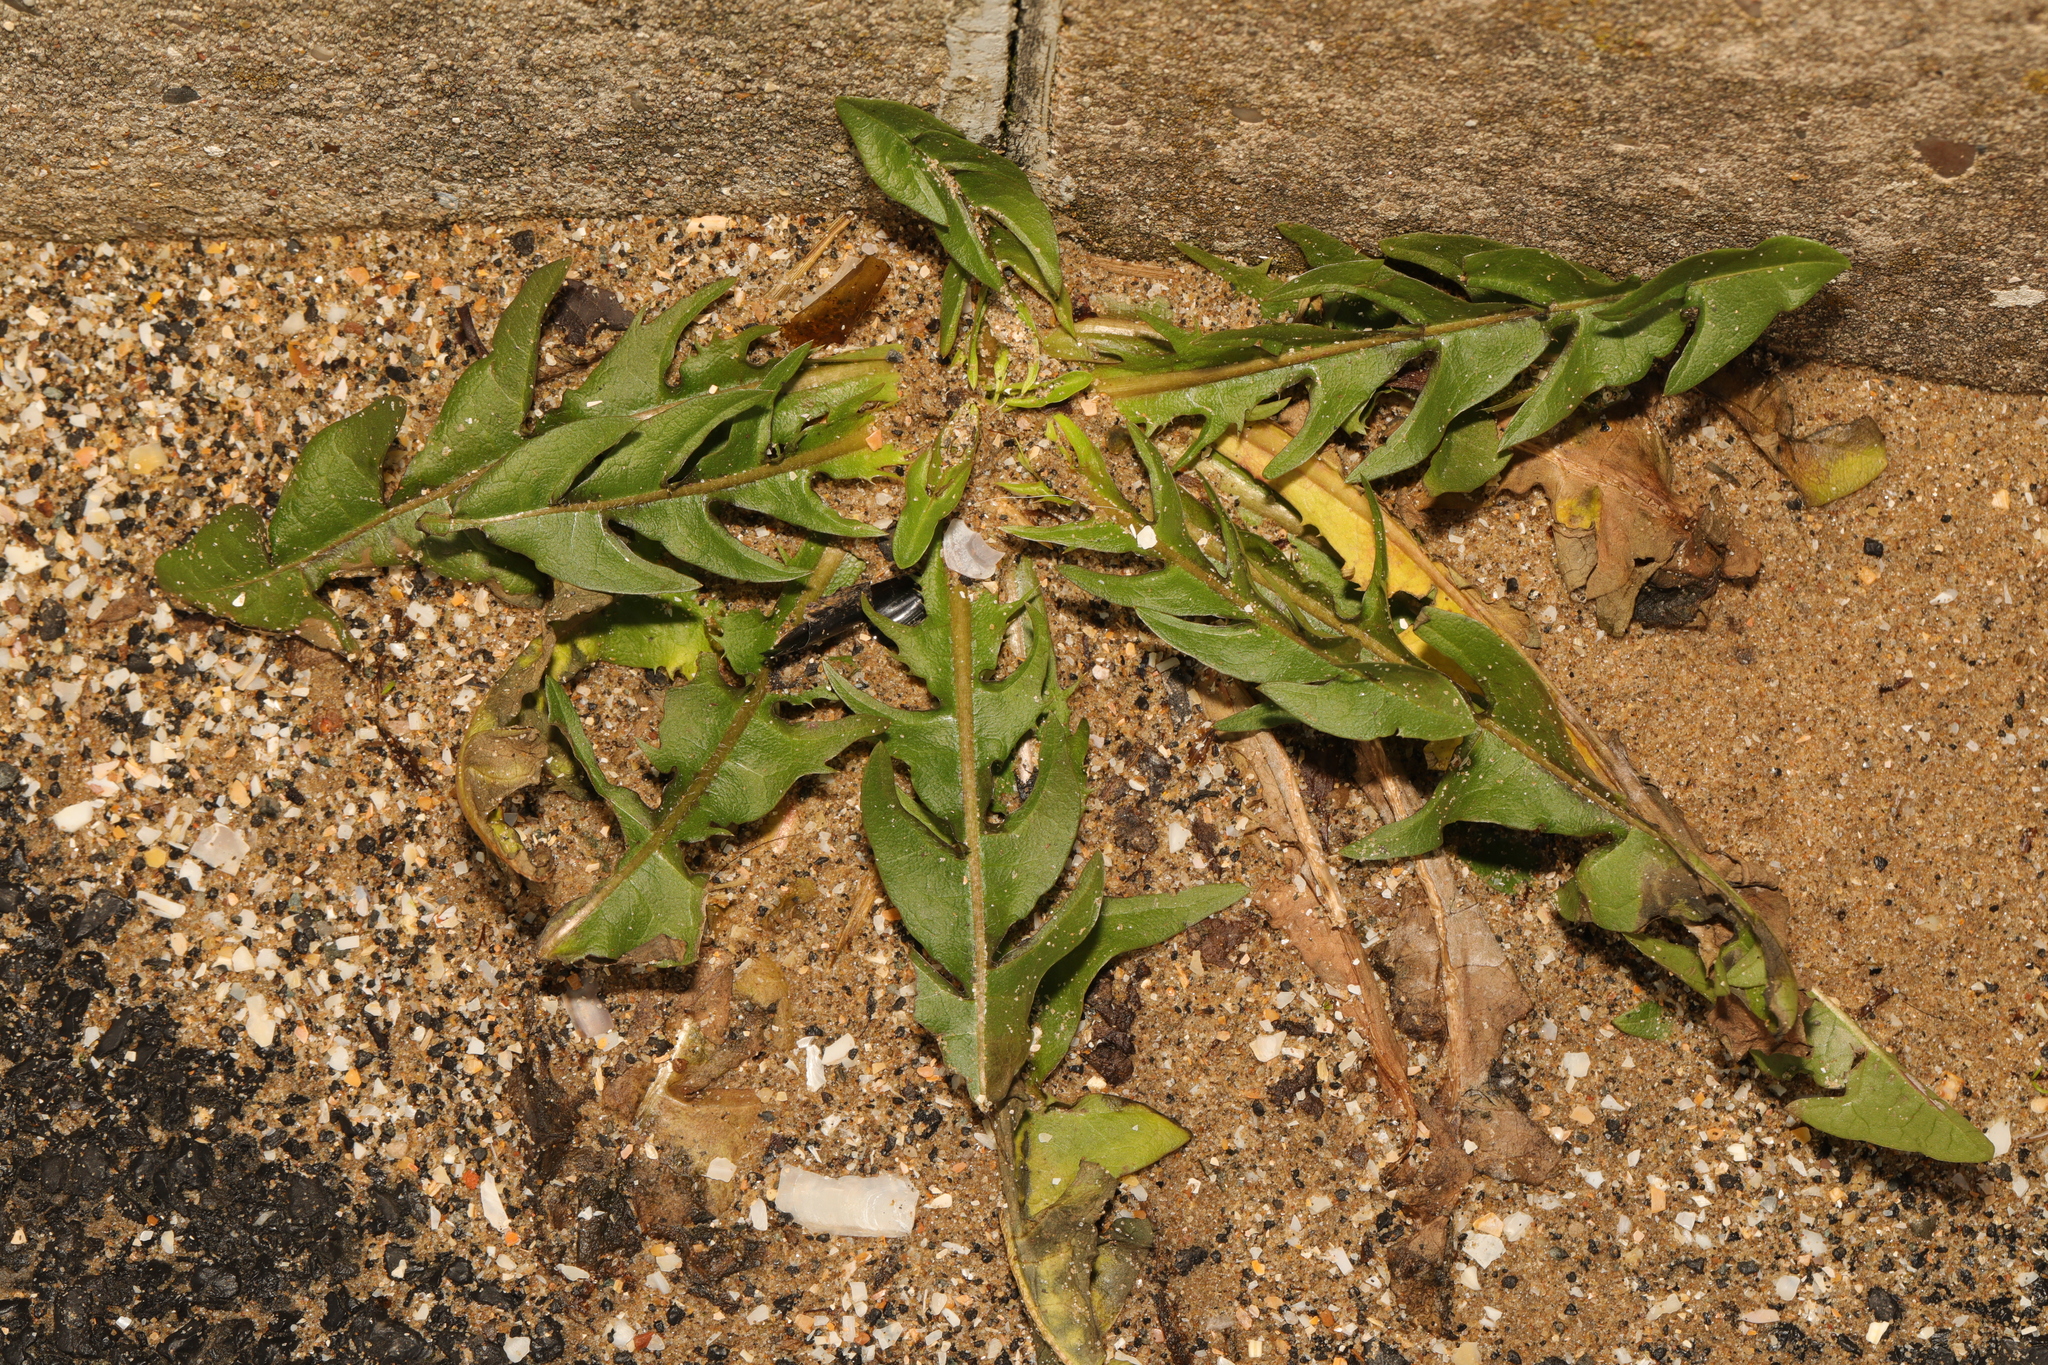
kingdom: Plantae
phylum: Tracheophyta
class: Magnoliopsida
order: Asterales
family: Asteraceae
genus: Taraxacum
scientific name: Taraxacum officinale
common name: Common dandelion
